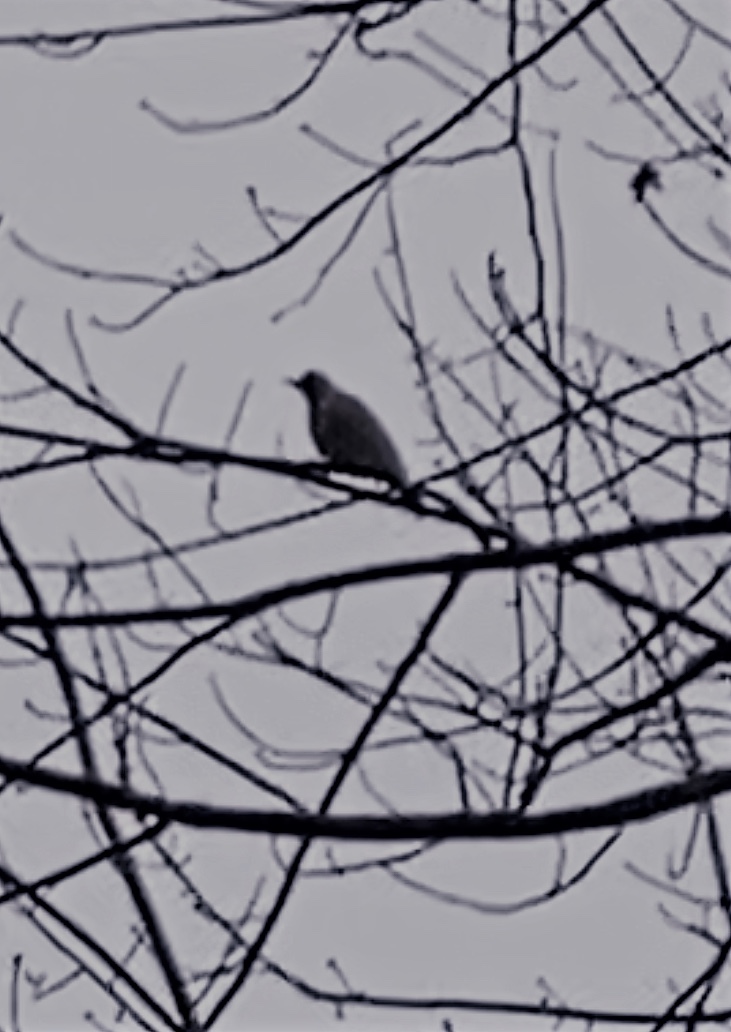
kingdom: Animalia
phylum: Chordata
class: Aves
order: Columbiformes
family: Columbidae
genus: Columba
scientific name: Columba palumbus
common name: Common wood pigeon
